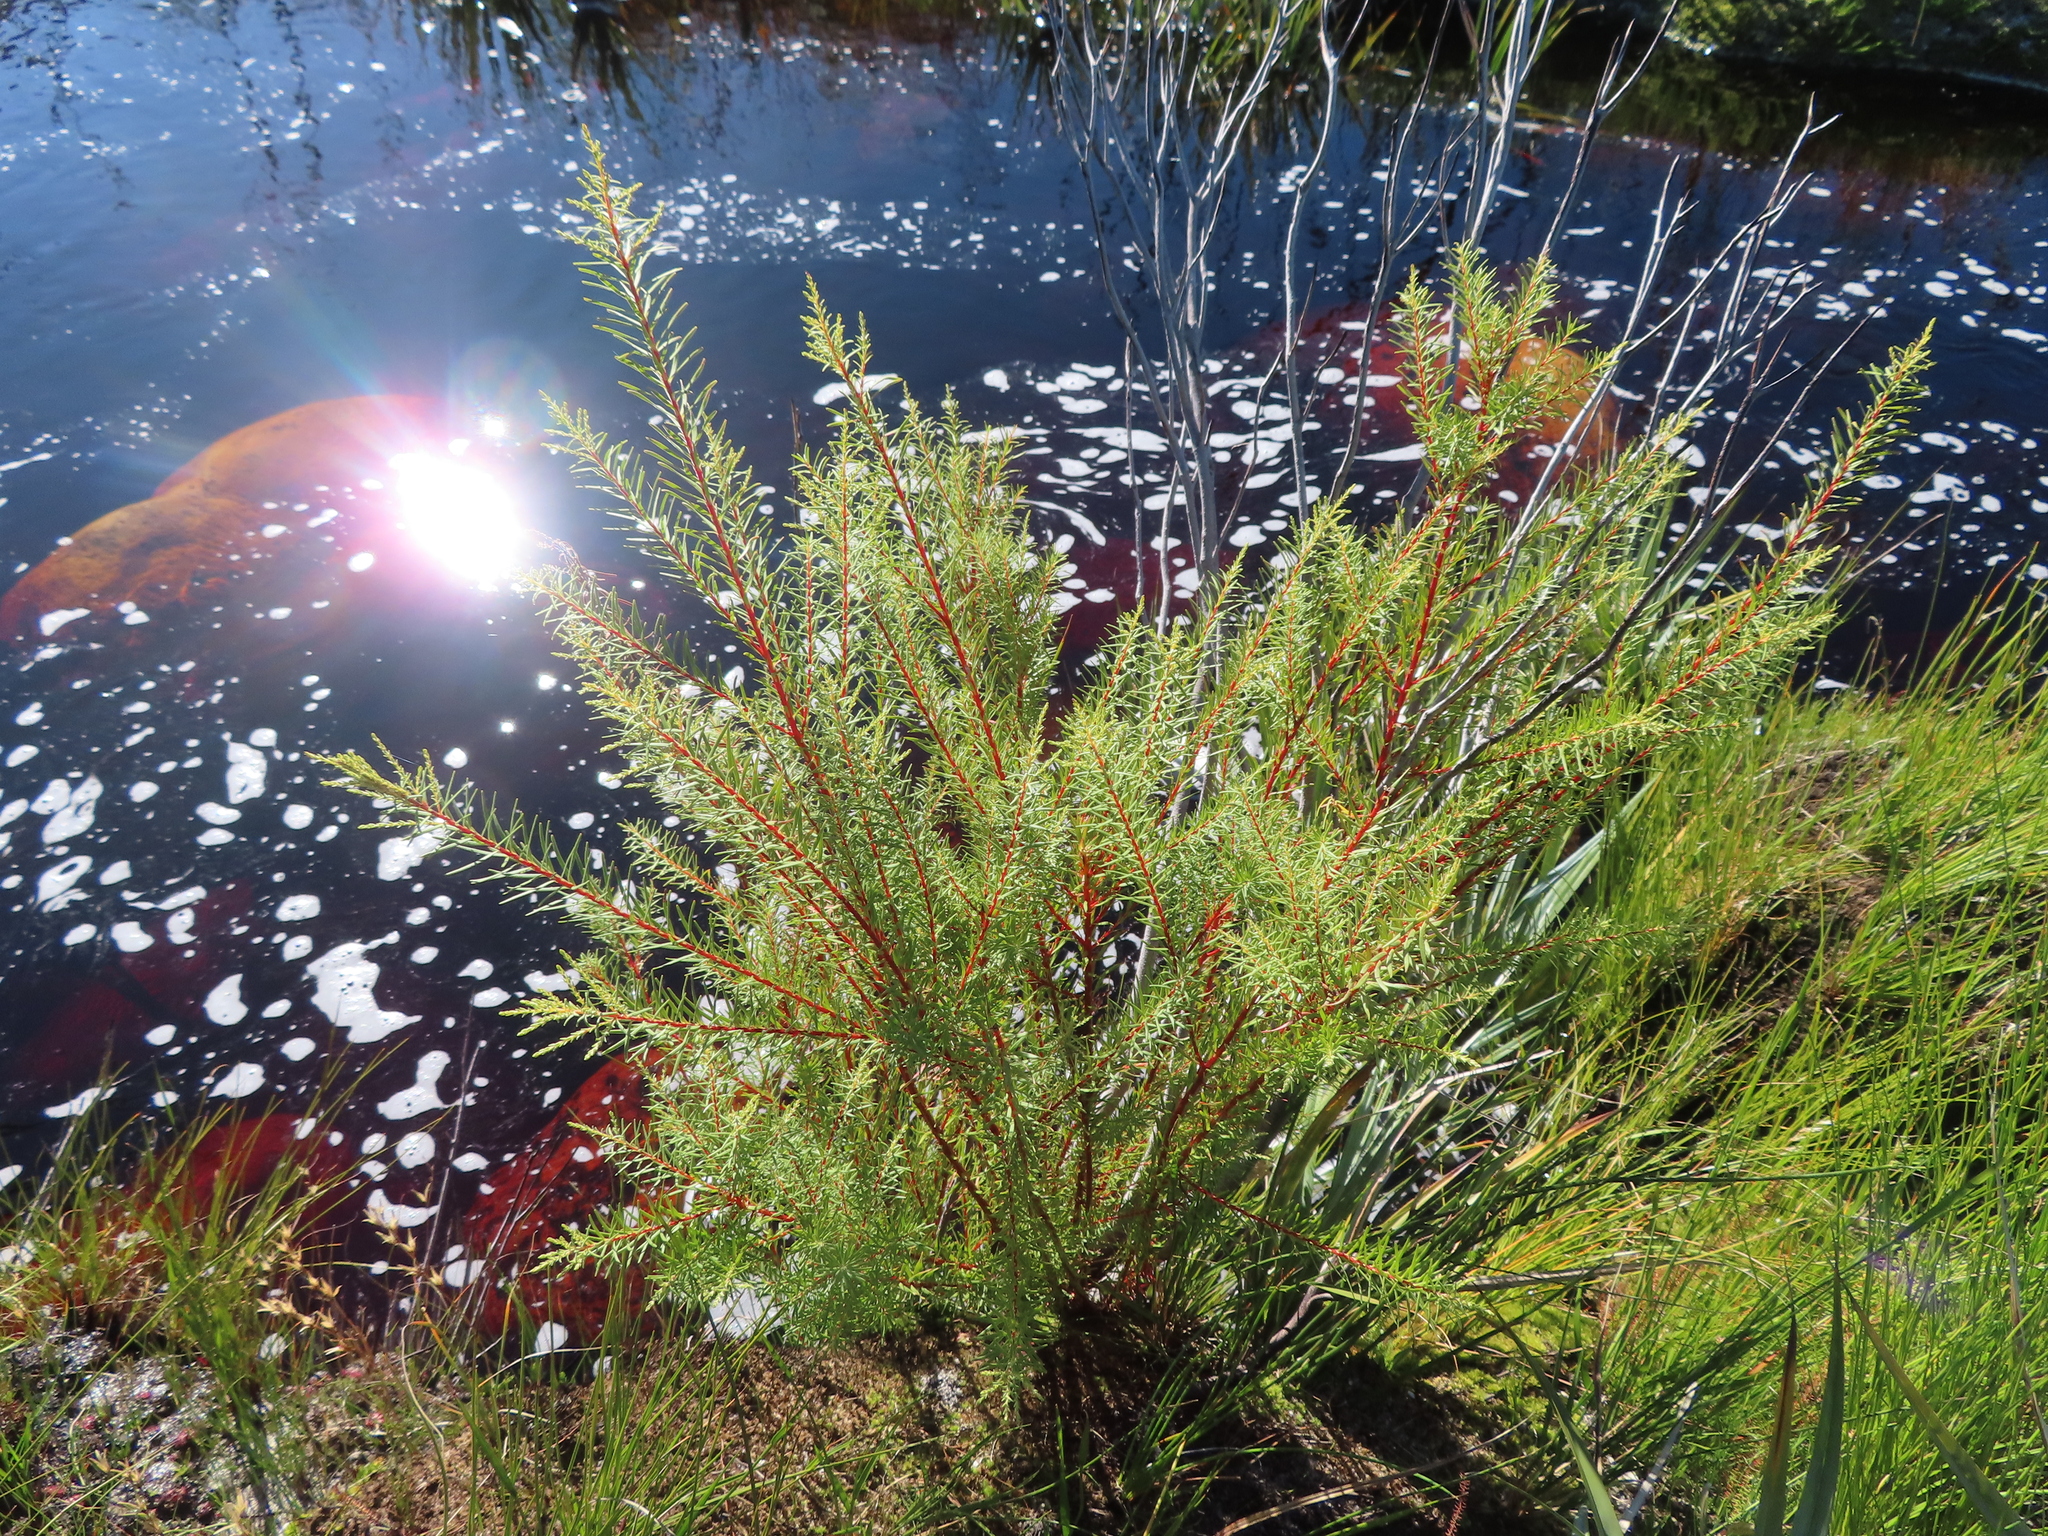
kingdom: Plantae
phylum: Tracheophyta
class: Magnoliopsida
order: Bruniales
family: Bruniaceae
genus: Brunia
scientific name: Brunia africana
